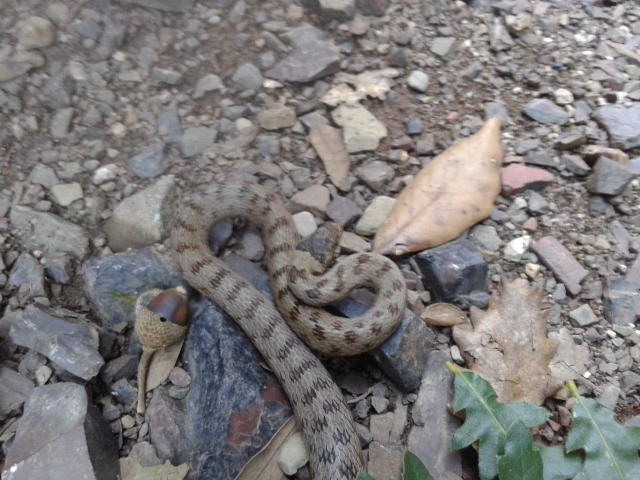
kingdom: Animalia
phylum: Chordata
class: Squamata
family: Colubridae
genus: Coronella
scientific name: Coronella austriaca
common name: Smooth snake
